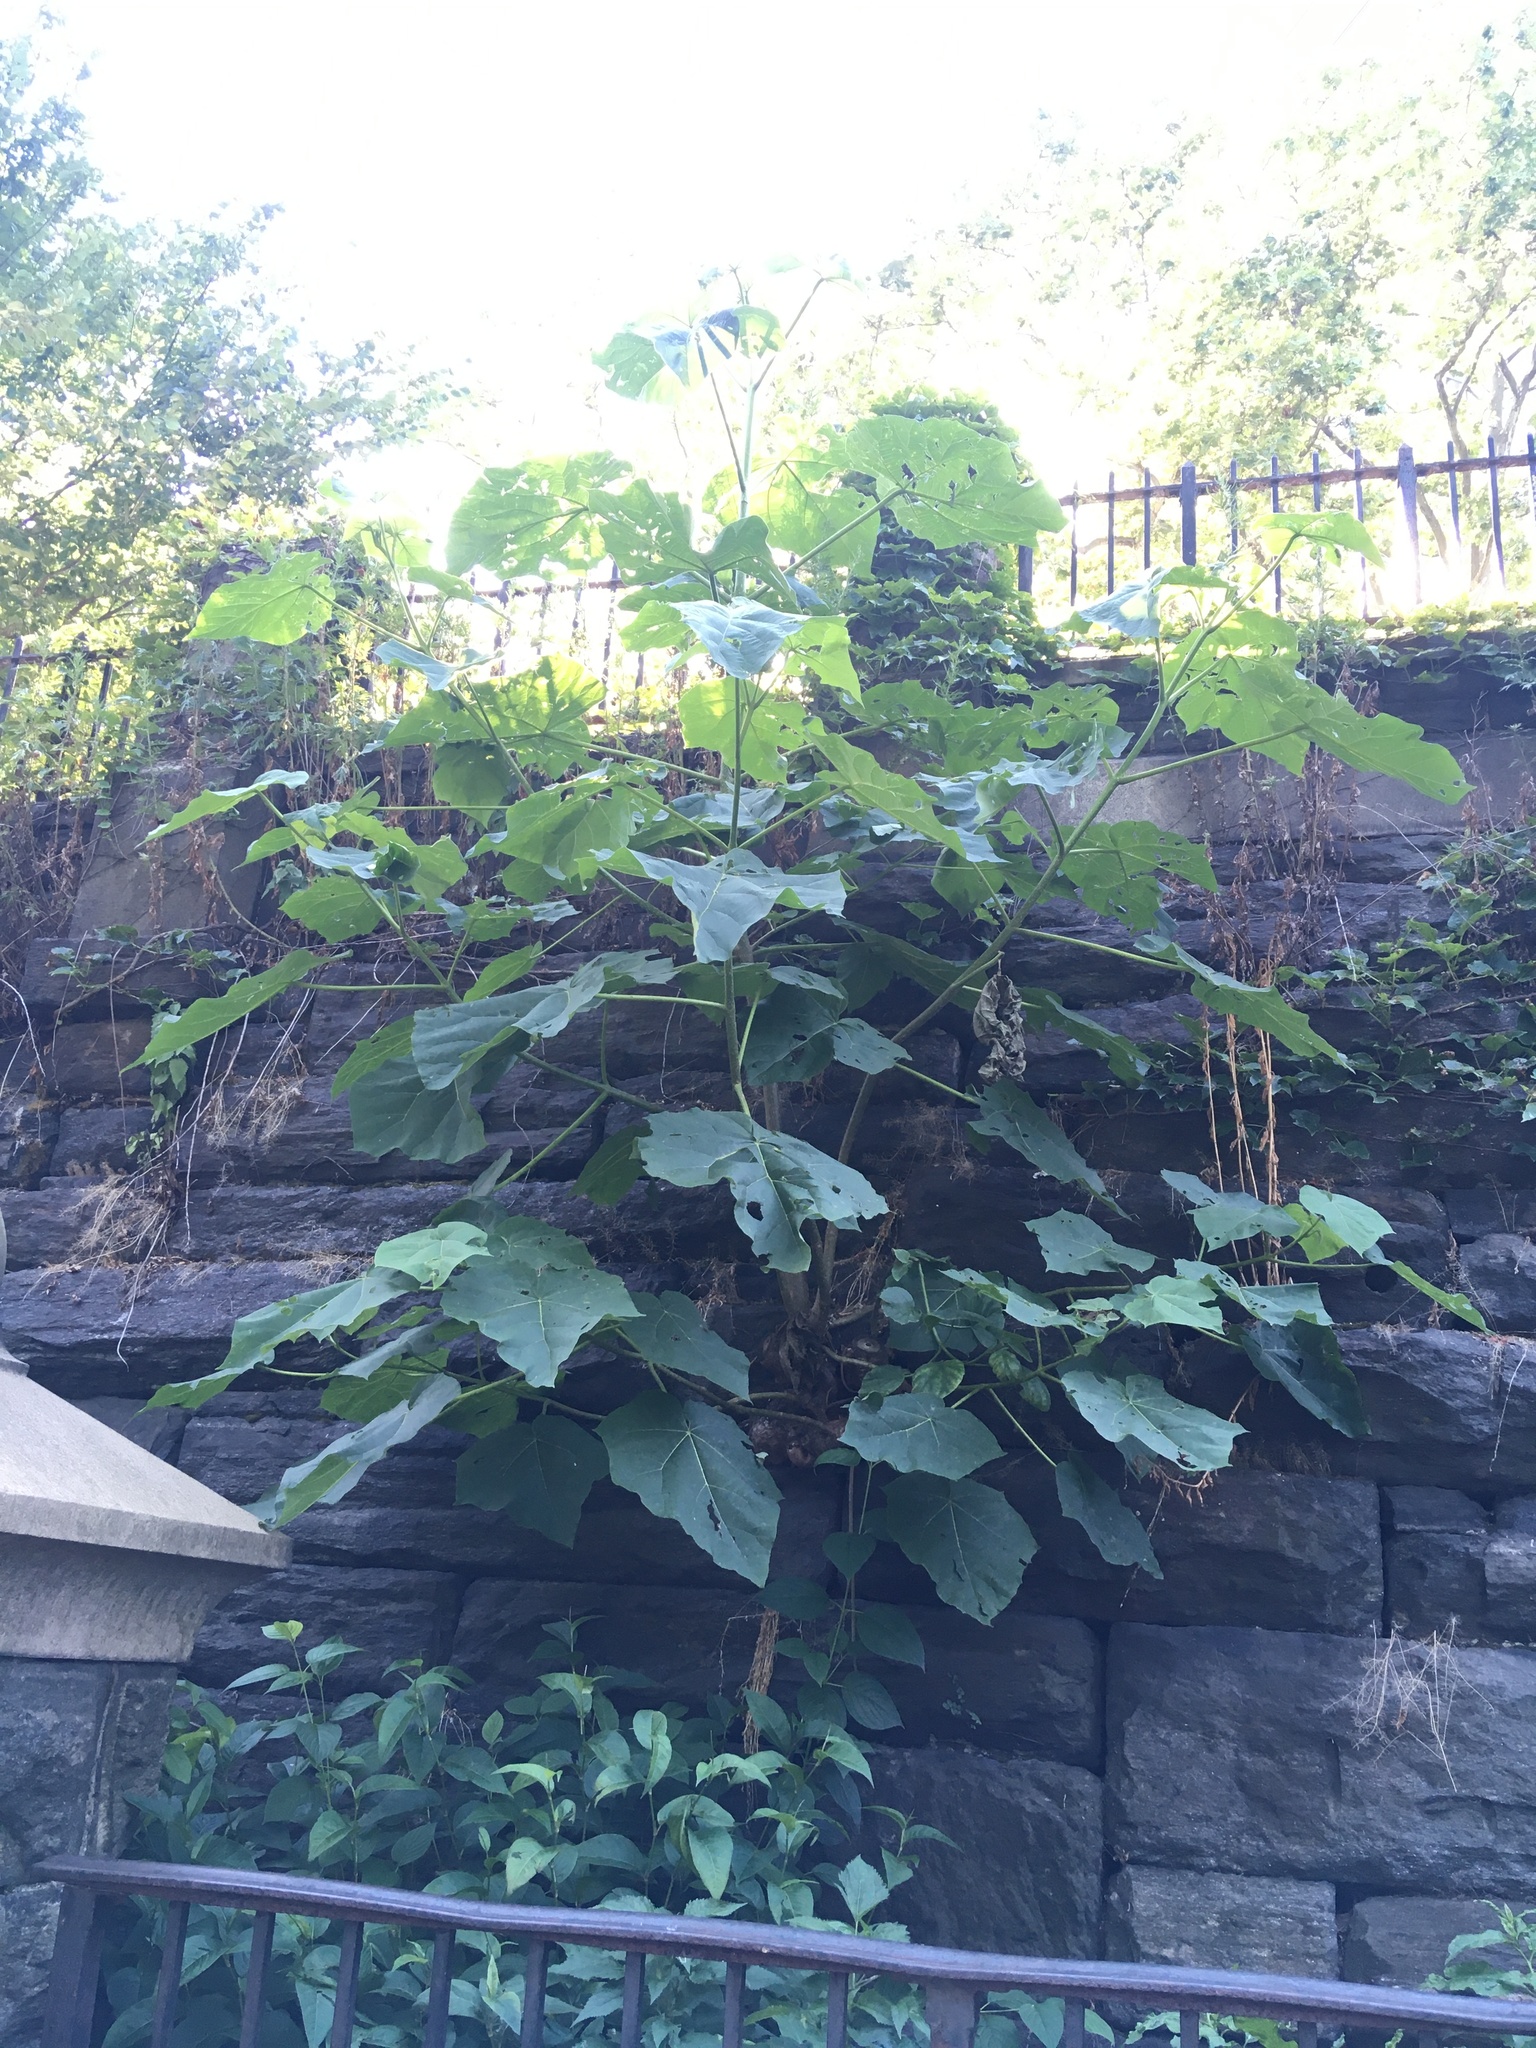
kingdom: Plantae
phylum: Tracheophyta
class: Magnoliopsida
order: Lamiales
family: Paulowniaceae
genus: Paulownia
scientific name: Paulownia tomentosa
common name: Foxglove-tree
